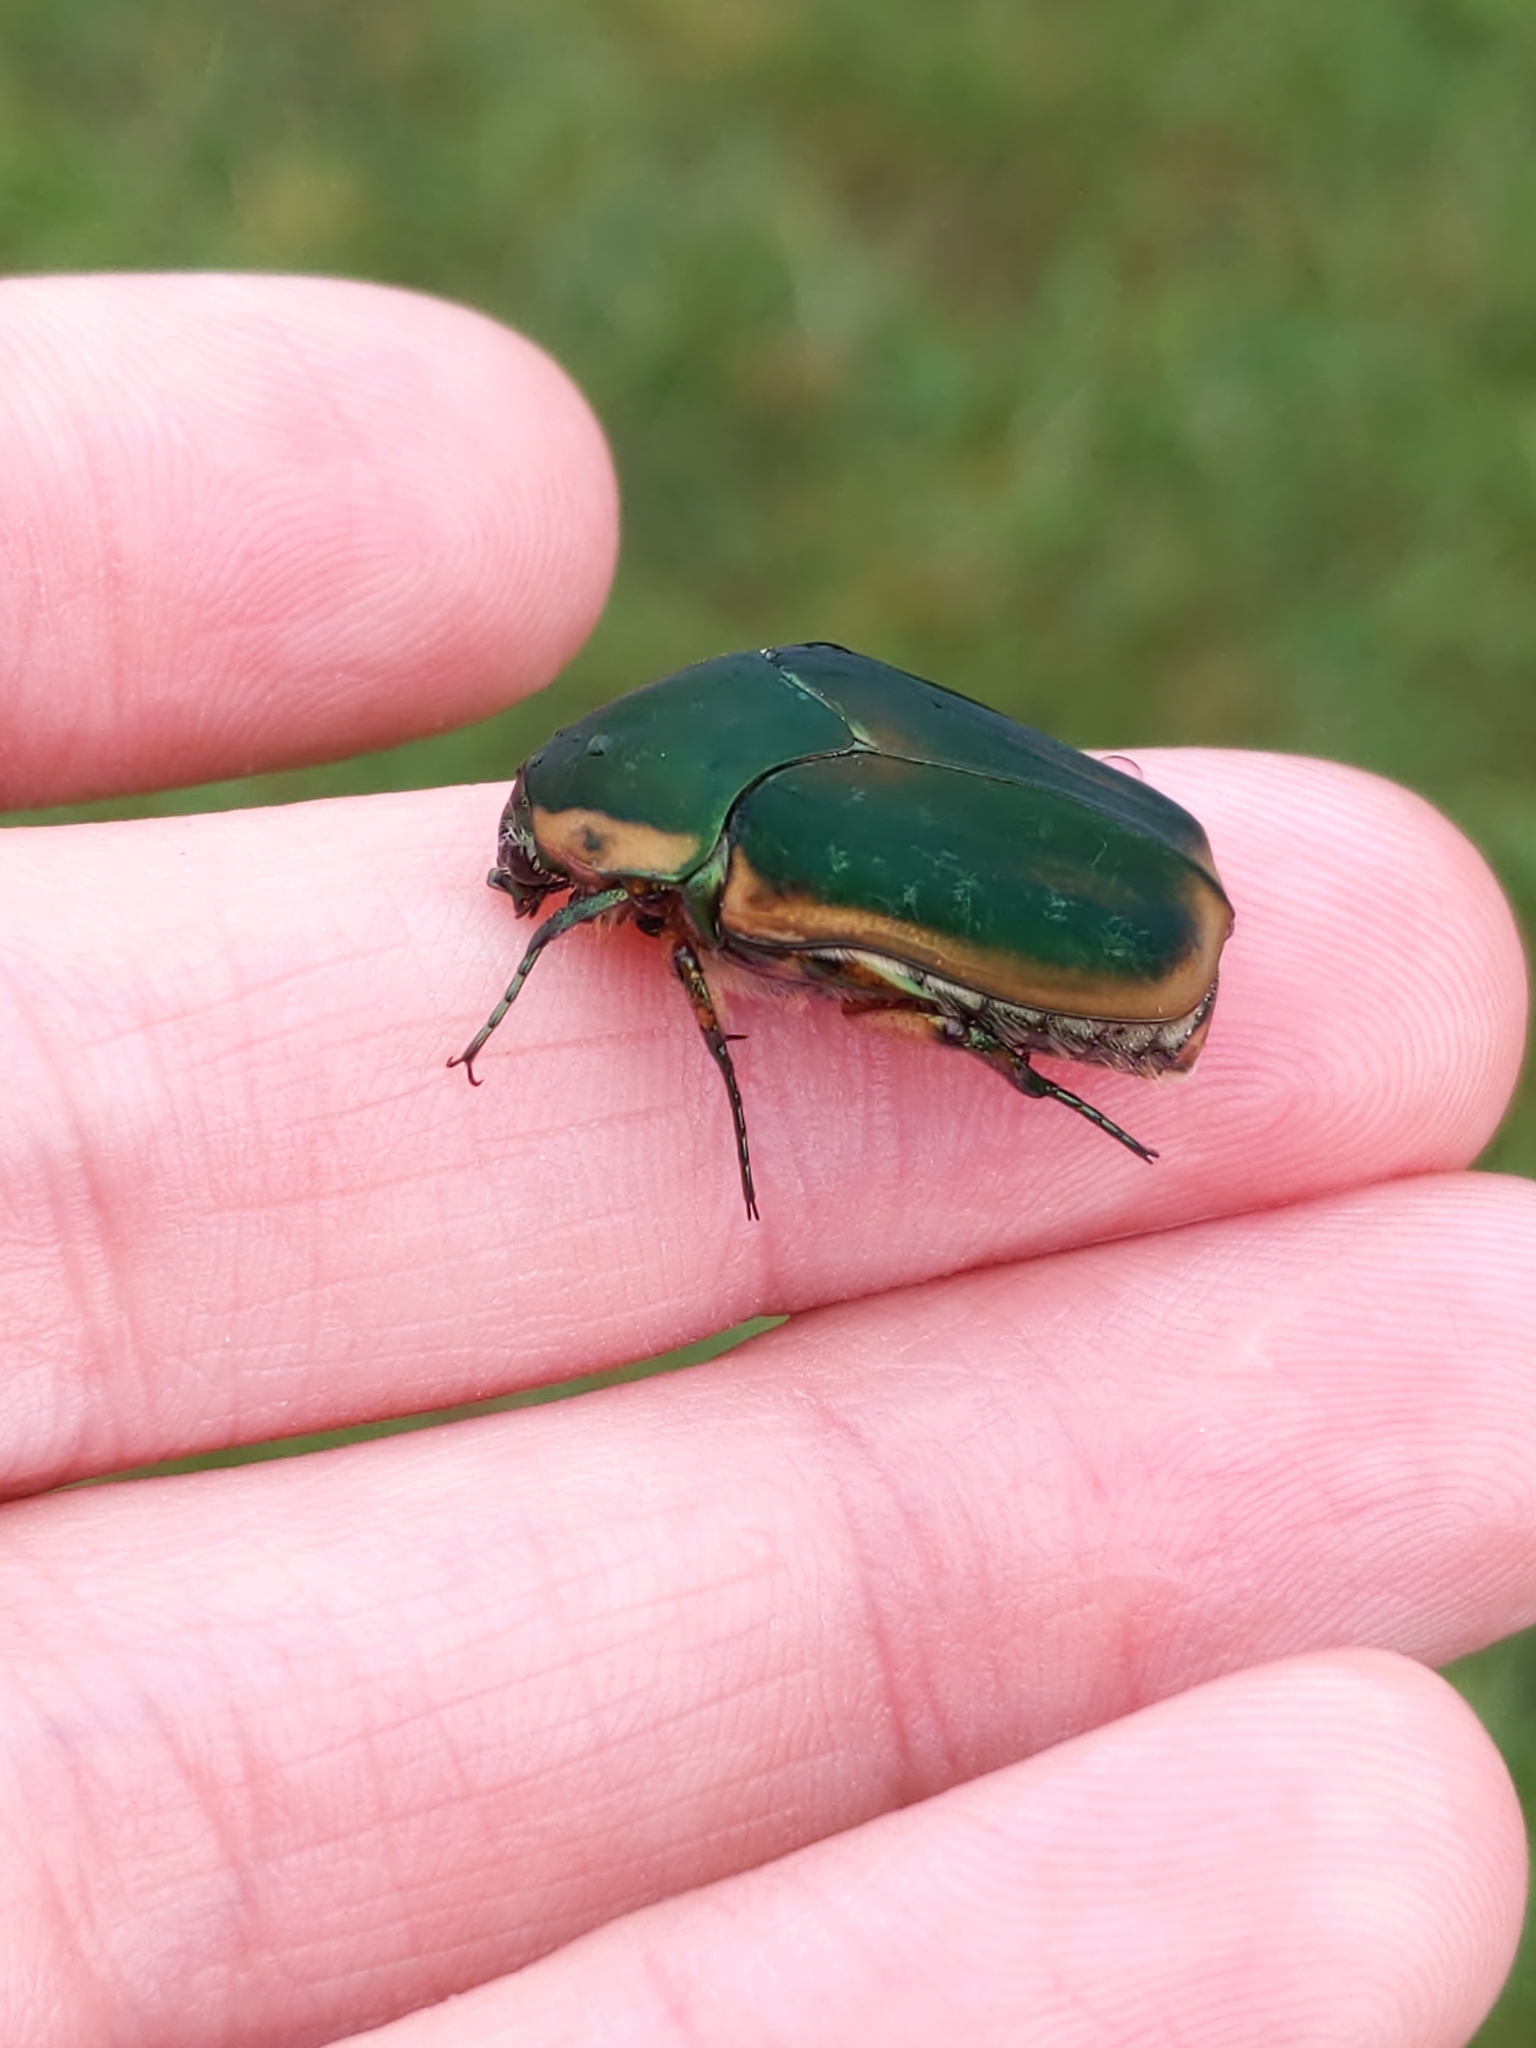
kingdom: Animalia
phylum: Arthropoda
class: Insecta
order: Coleoptera
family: Scarabaeidae
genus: Cotinis
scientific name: Cotinis nitida
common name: Common green june beetle
